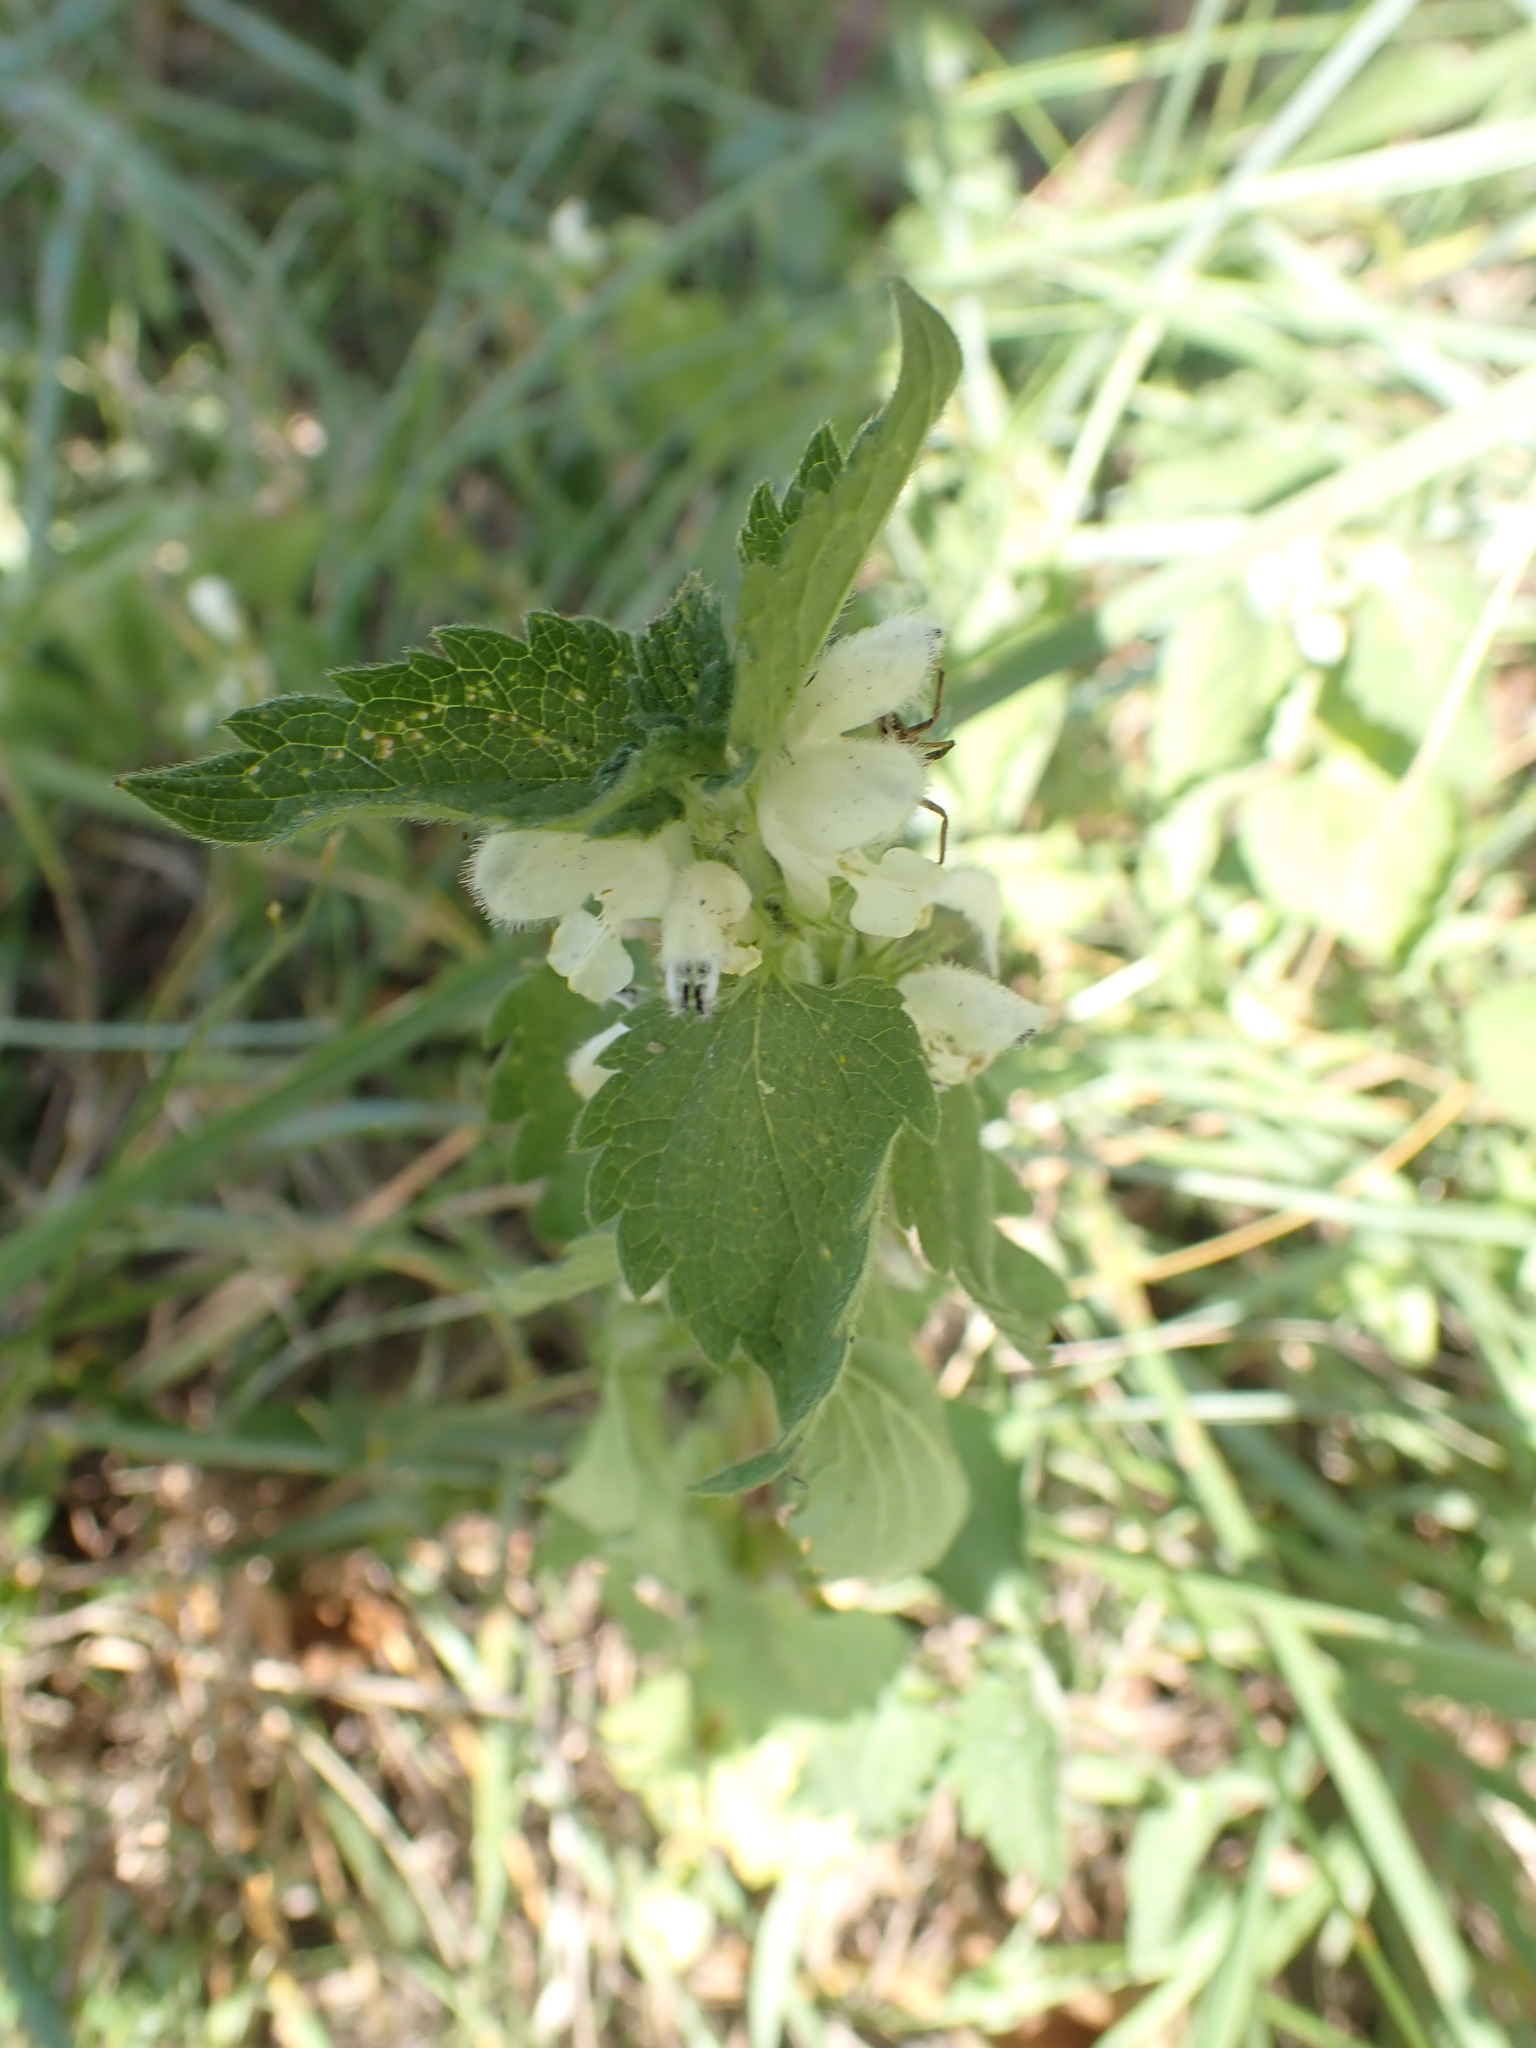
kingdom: Plantae
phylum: Tracheophyta
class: Magnoliopsida
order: Lamiales
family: Lamiaceae
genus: Lamium
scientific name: Lamium album
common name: White dead-nettle
